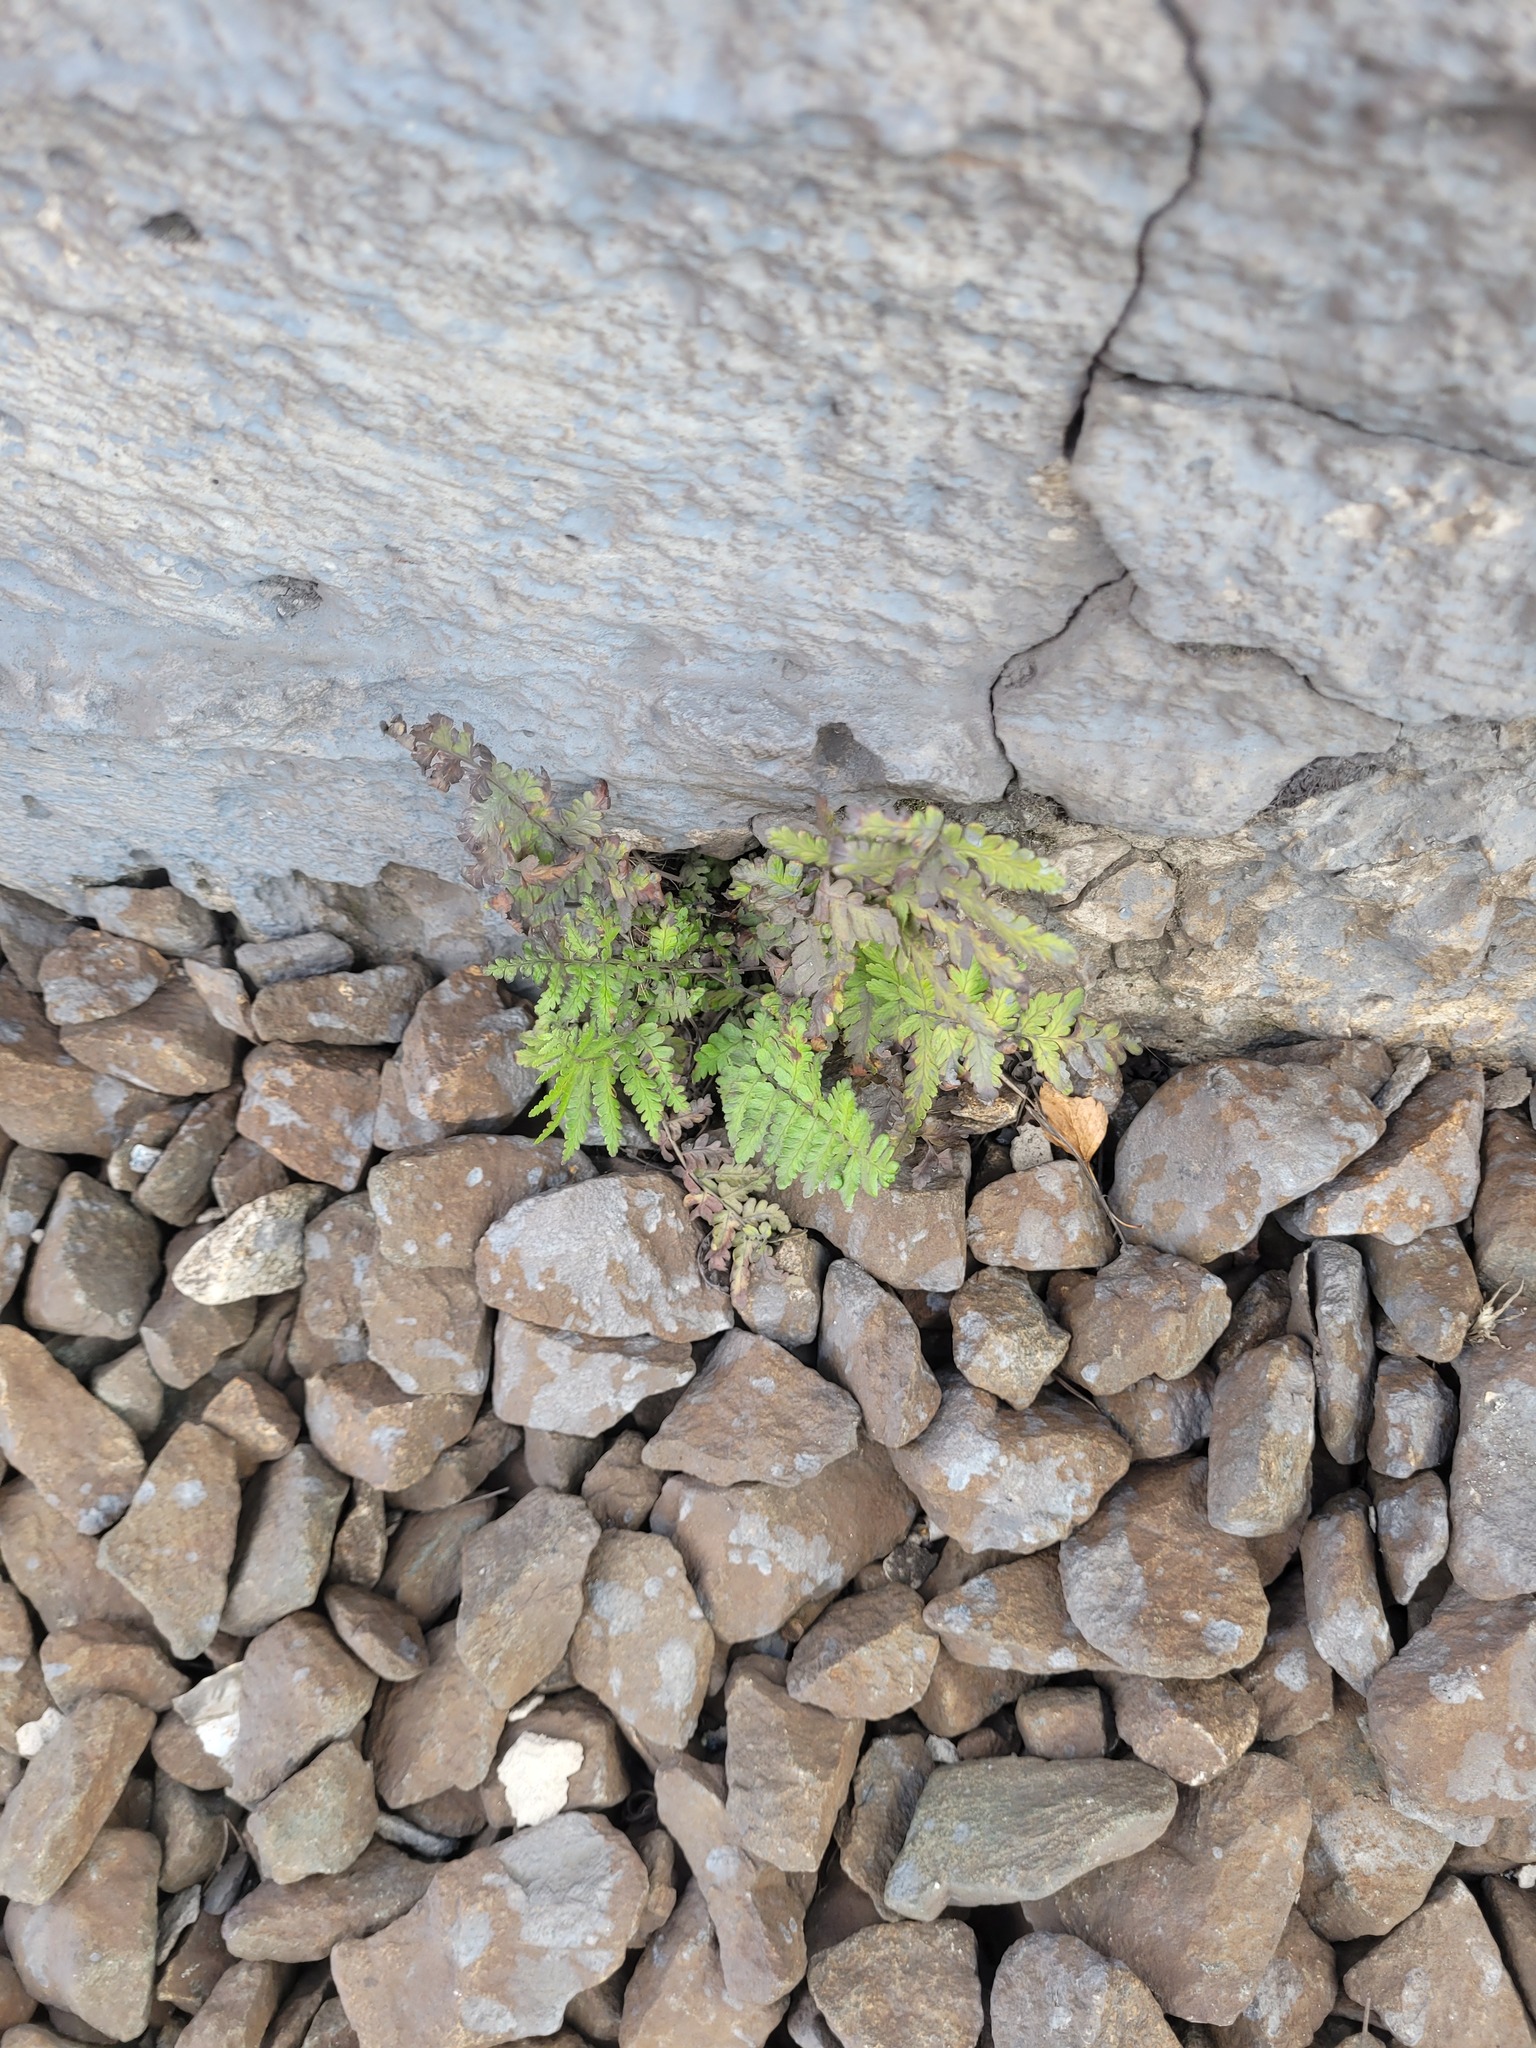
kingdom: Plantae
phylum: Tracheophyta
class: Polypodiopsida
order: Polypodiales
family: Dryopteridaceae
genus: Dryopteris
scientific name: Dryopteris filix-mas
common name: Male fern
